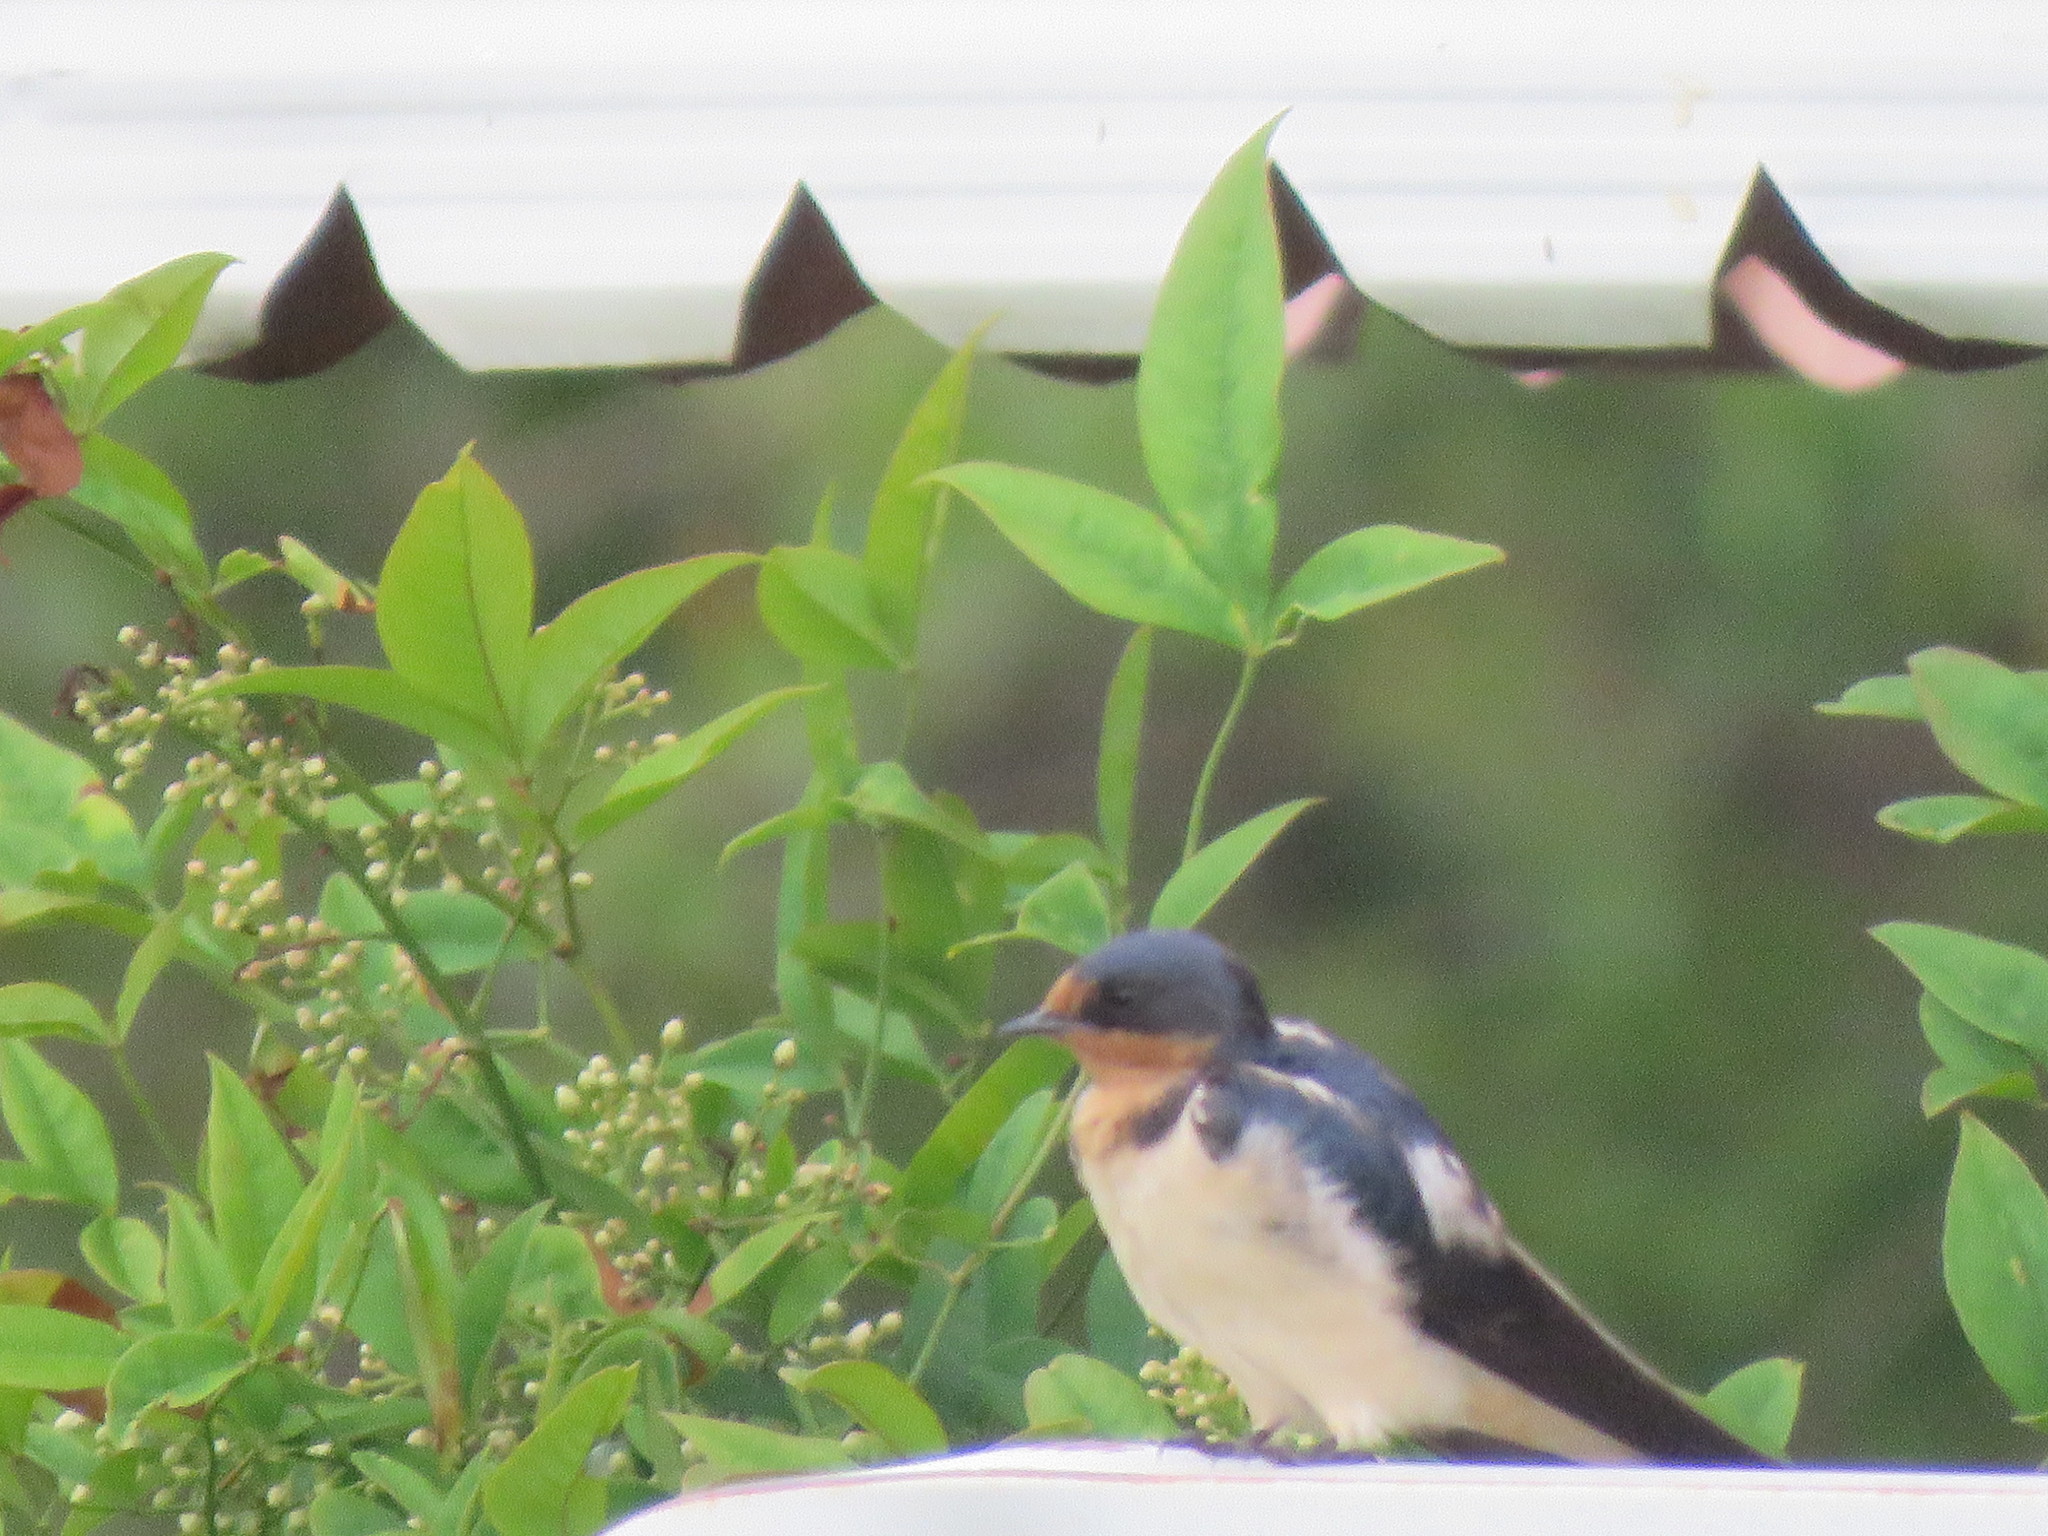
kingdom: Animalia
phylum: Chordata
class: Aves
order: Passeriformes
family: Hirundinidae
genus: Hirundo
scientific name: Hirundo rustica
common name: Barn swallow
